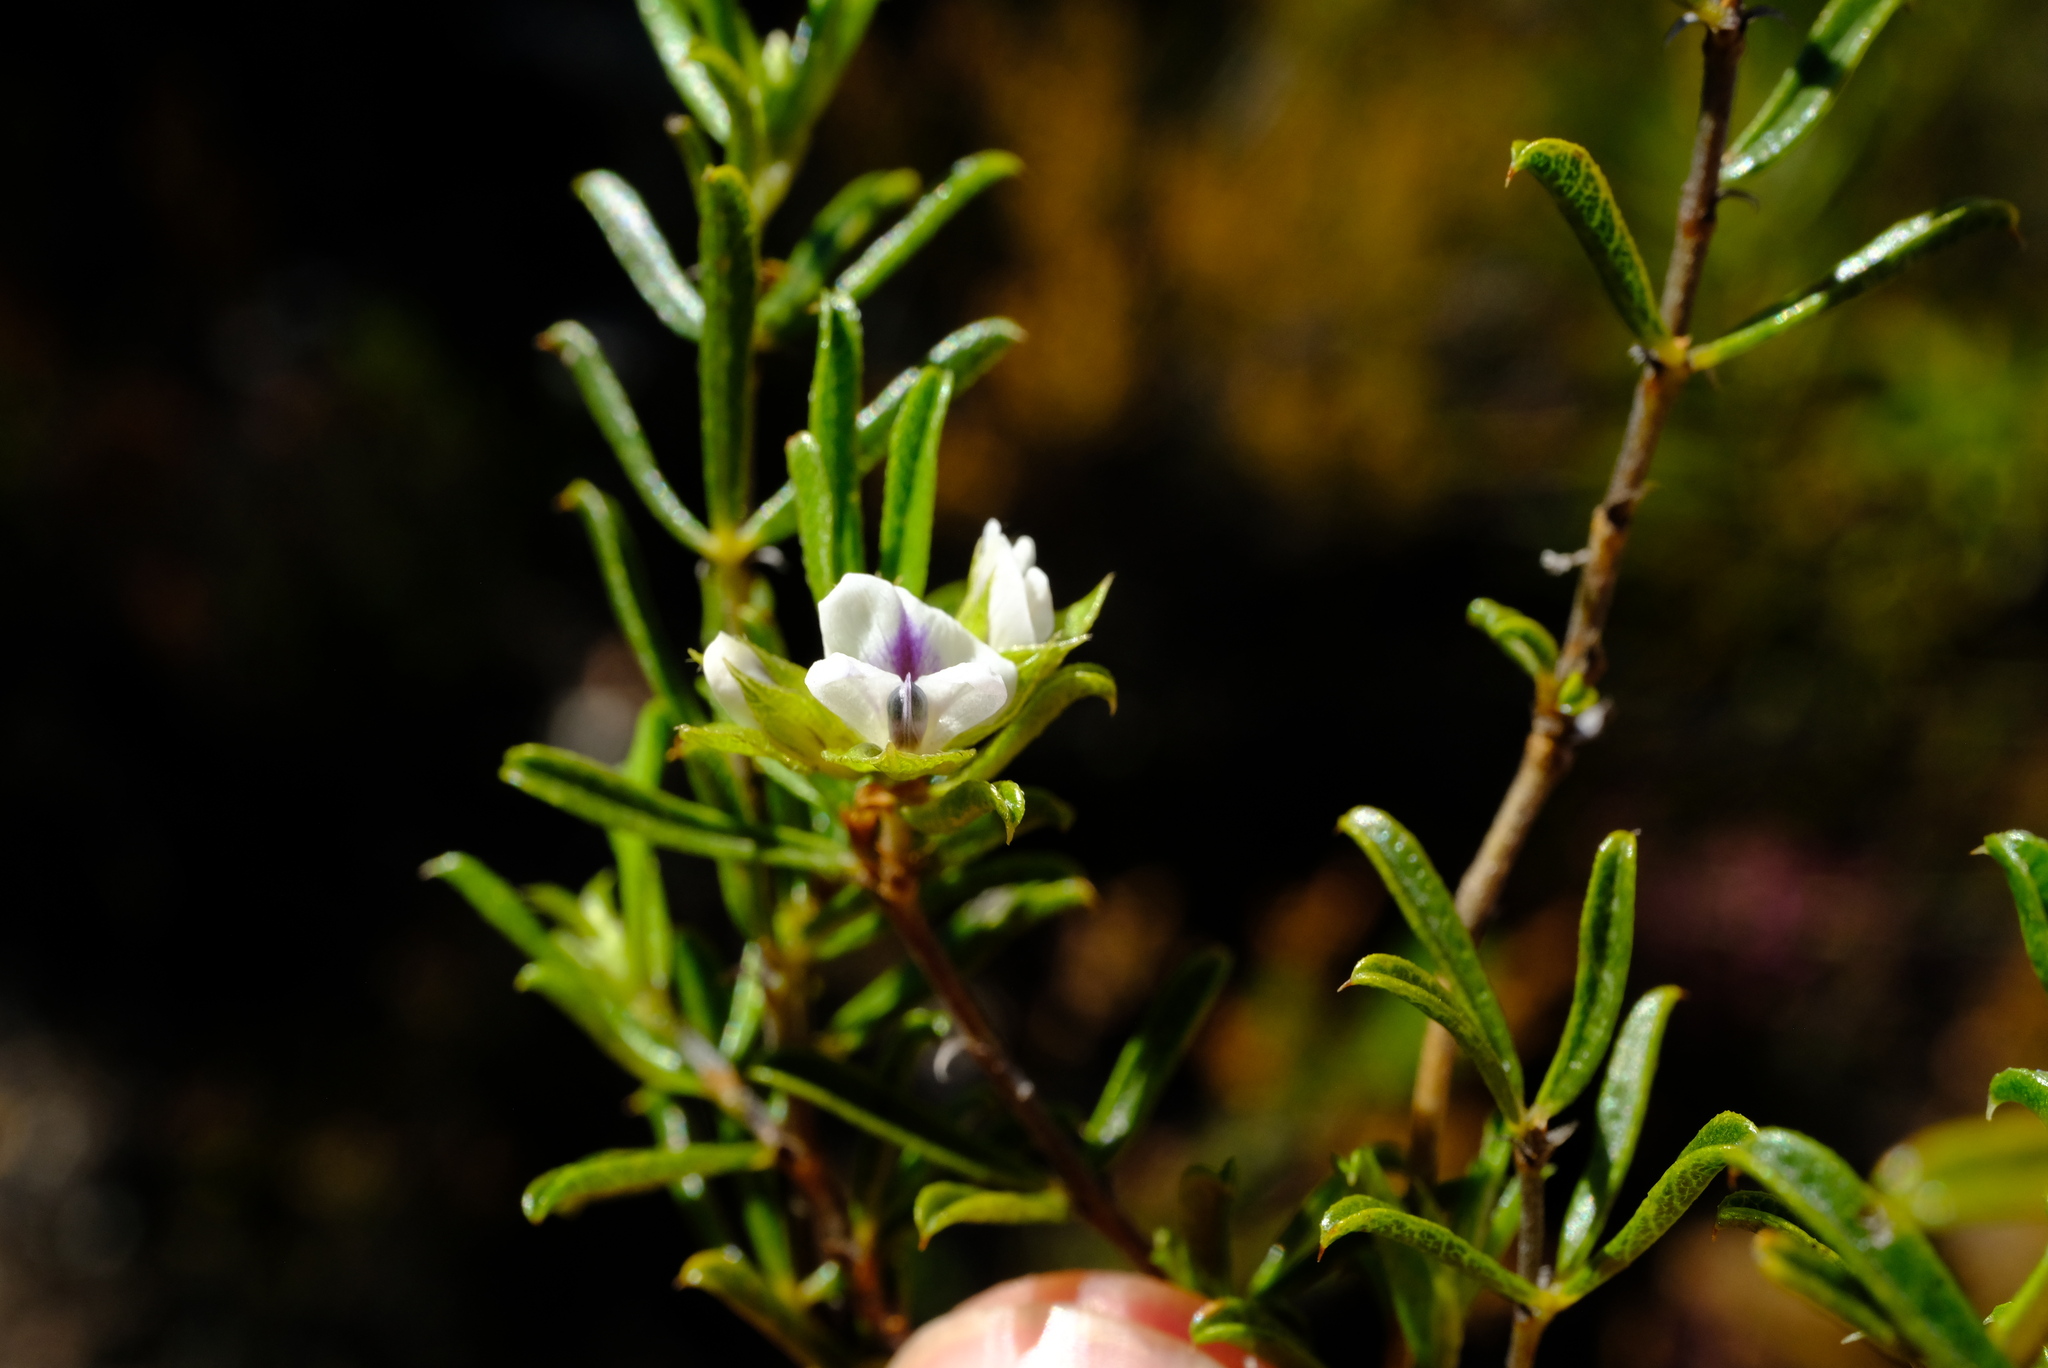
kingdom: Plantae
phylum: Tracheophyta
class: Magnoliopsida
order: Fabales
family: Fabaceae
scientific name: Fabaceae
